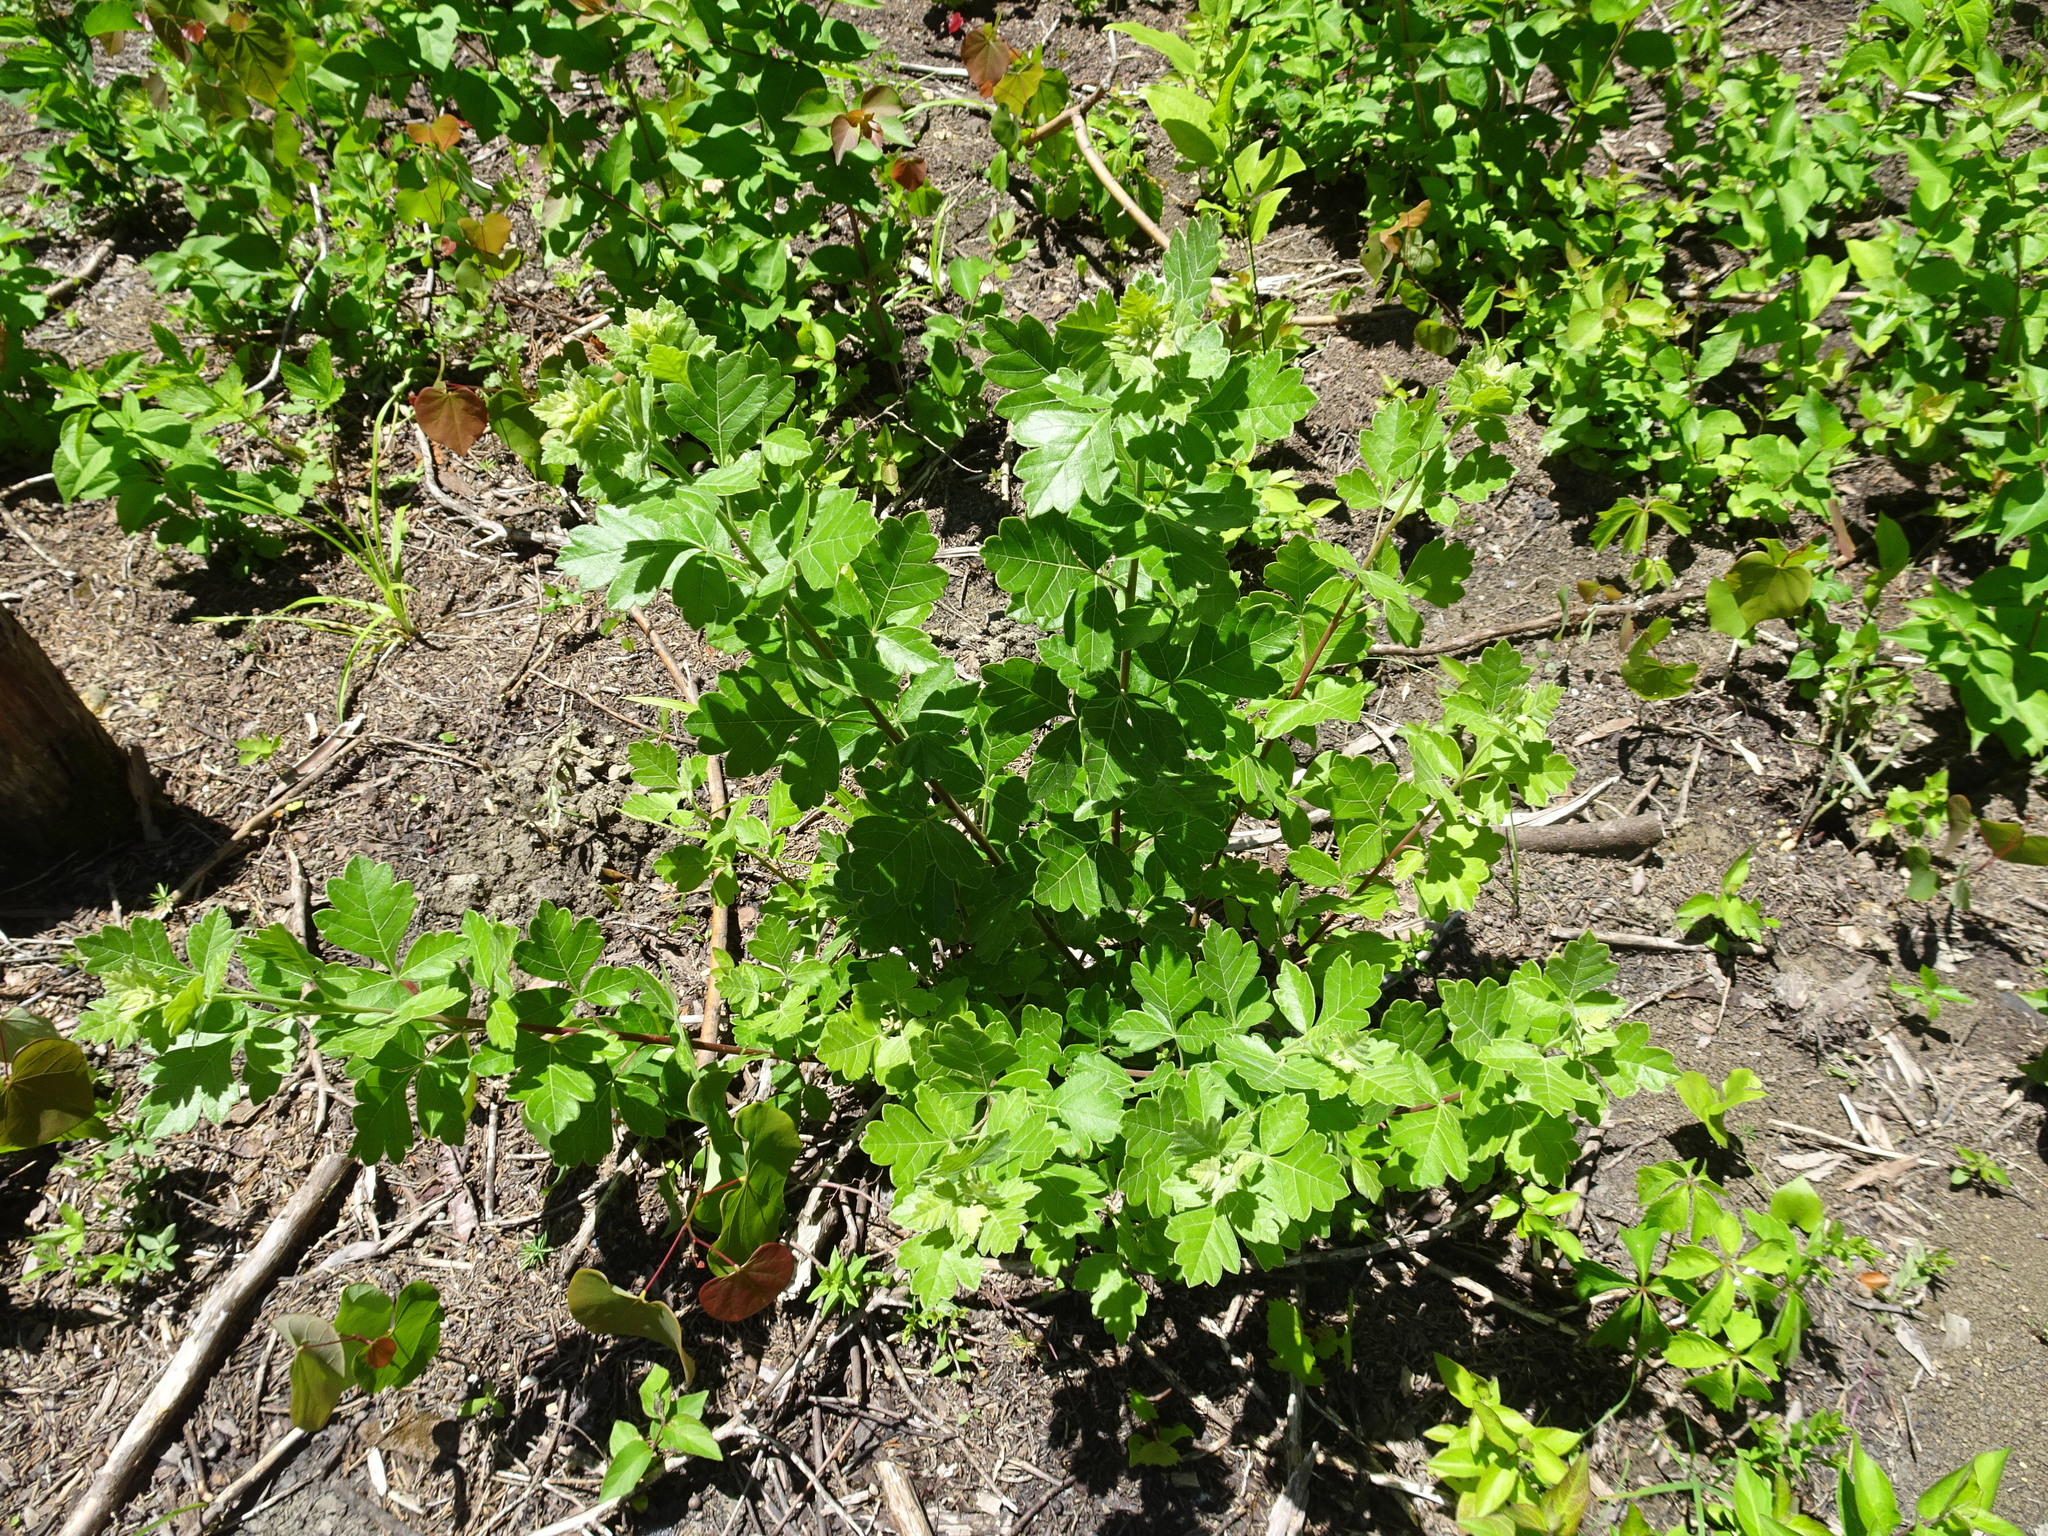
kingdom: Plantae
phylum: Tracheophyta
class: Magnoliopsida
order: Sapindales
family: Anacardiaceae
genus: Rhus
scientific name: Rhus aromatica
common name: Aromatic sumac
